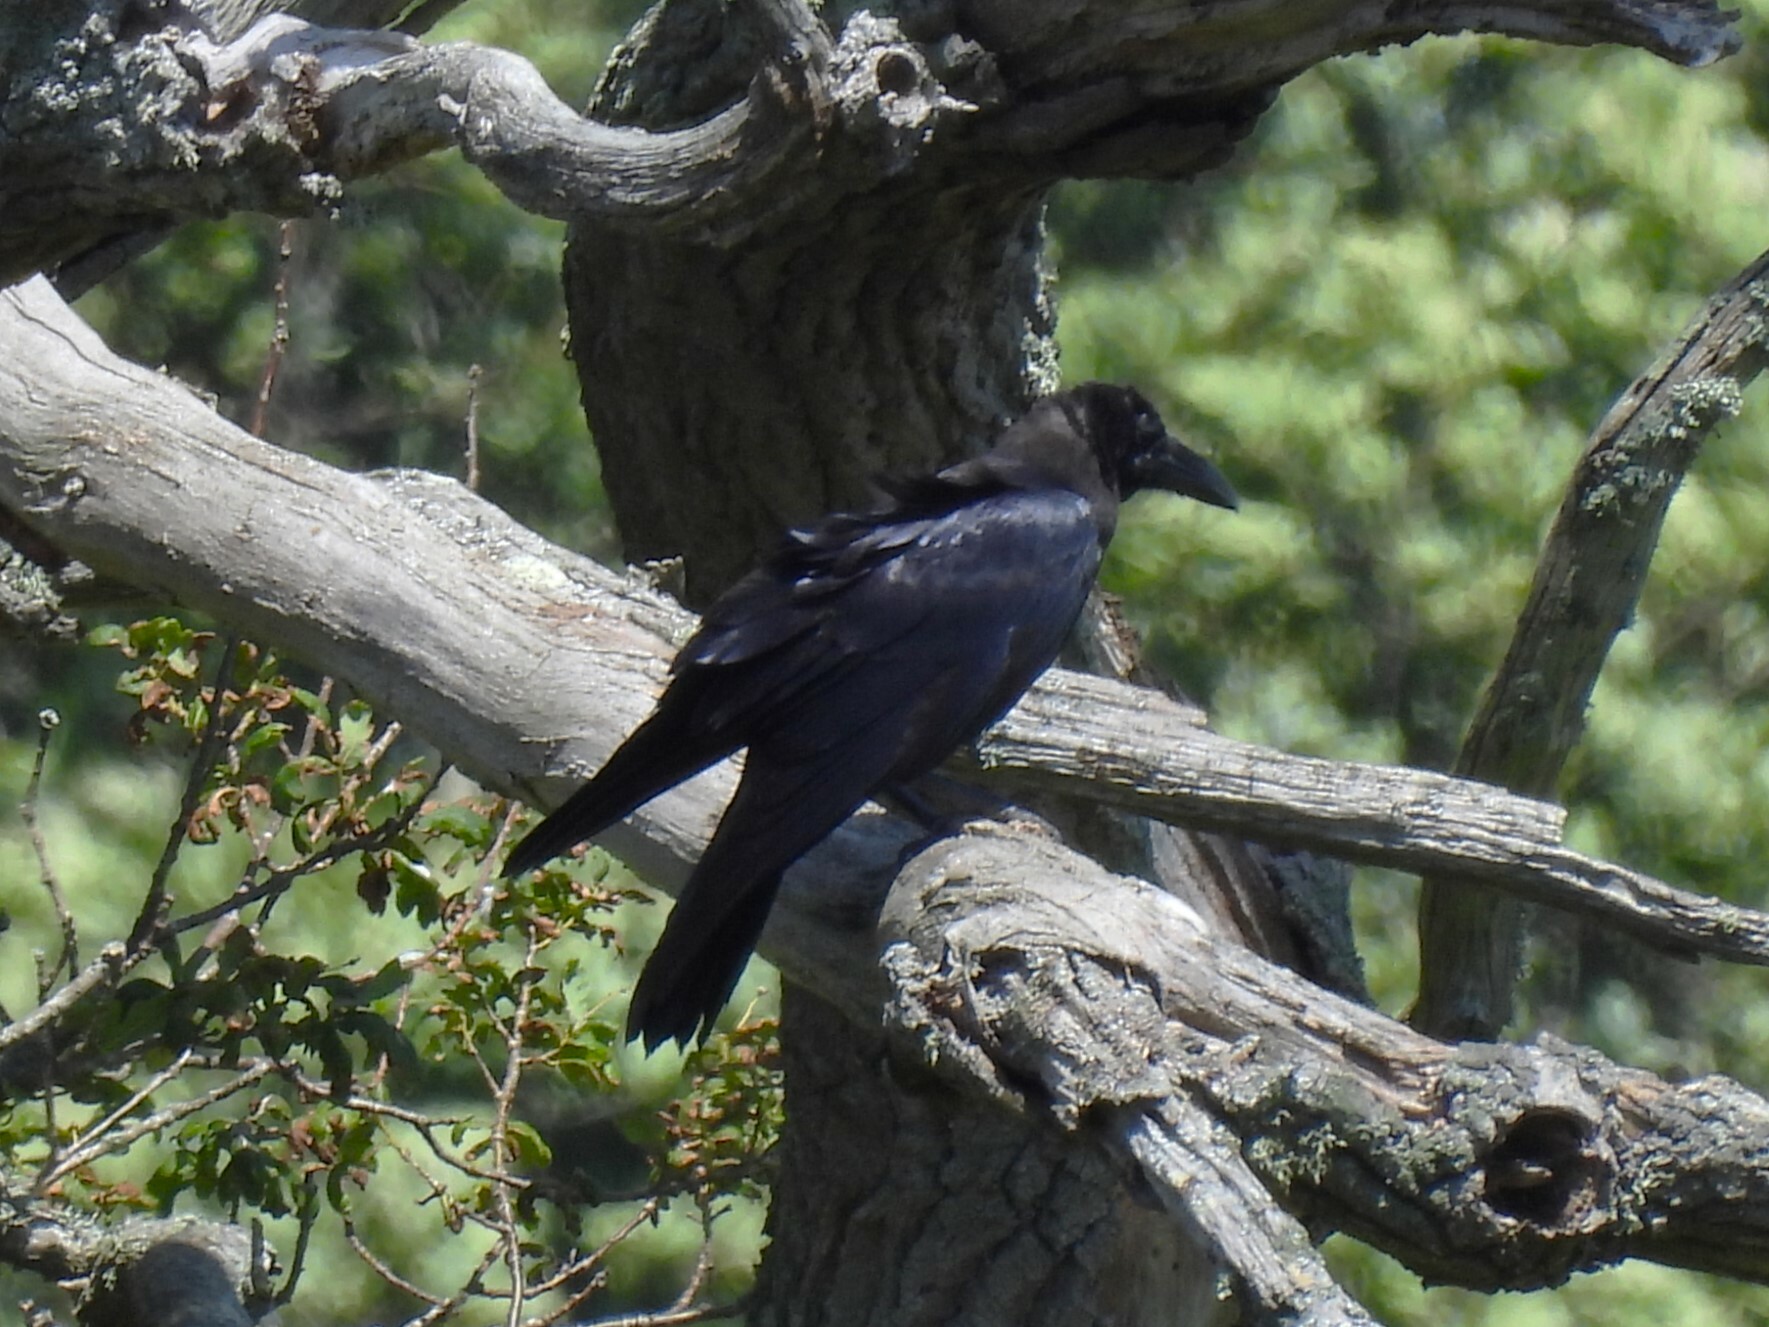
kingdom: Animalia
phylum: Chordata
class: Aves
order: Passeriformes
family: Corvidae
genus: Corvus
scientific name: Corvus corax
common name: Common raven
